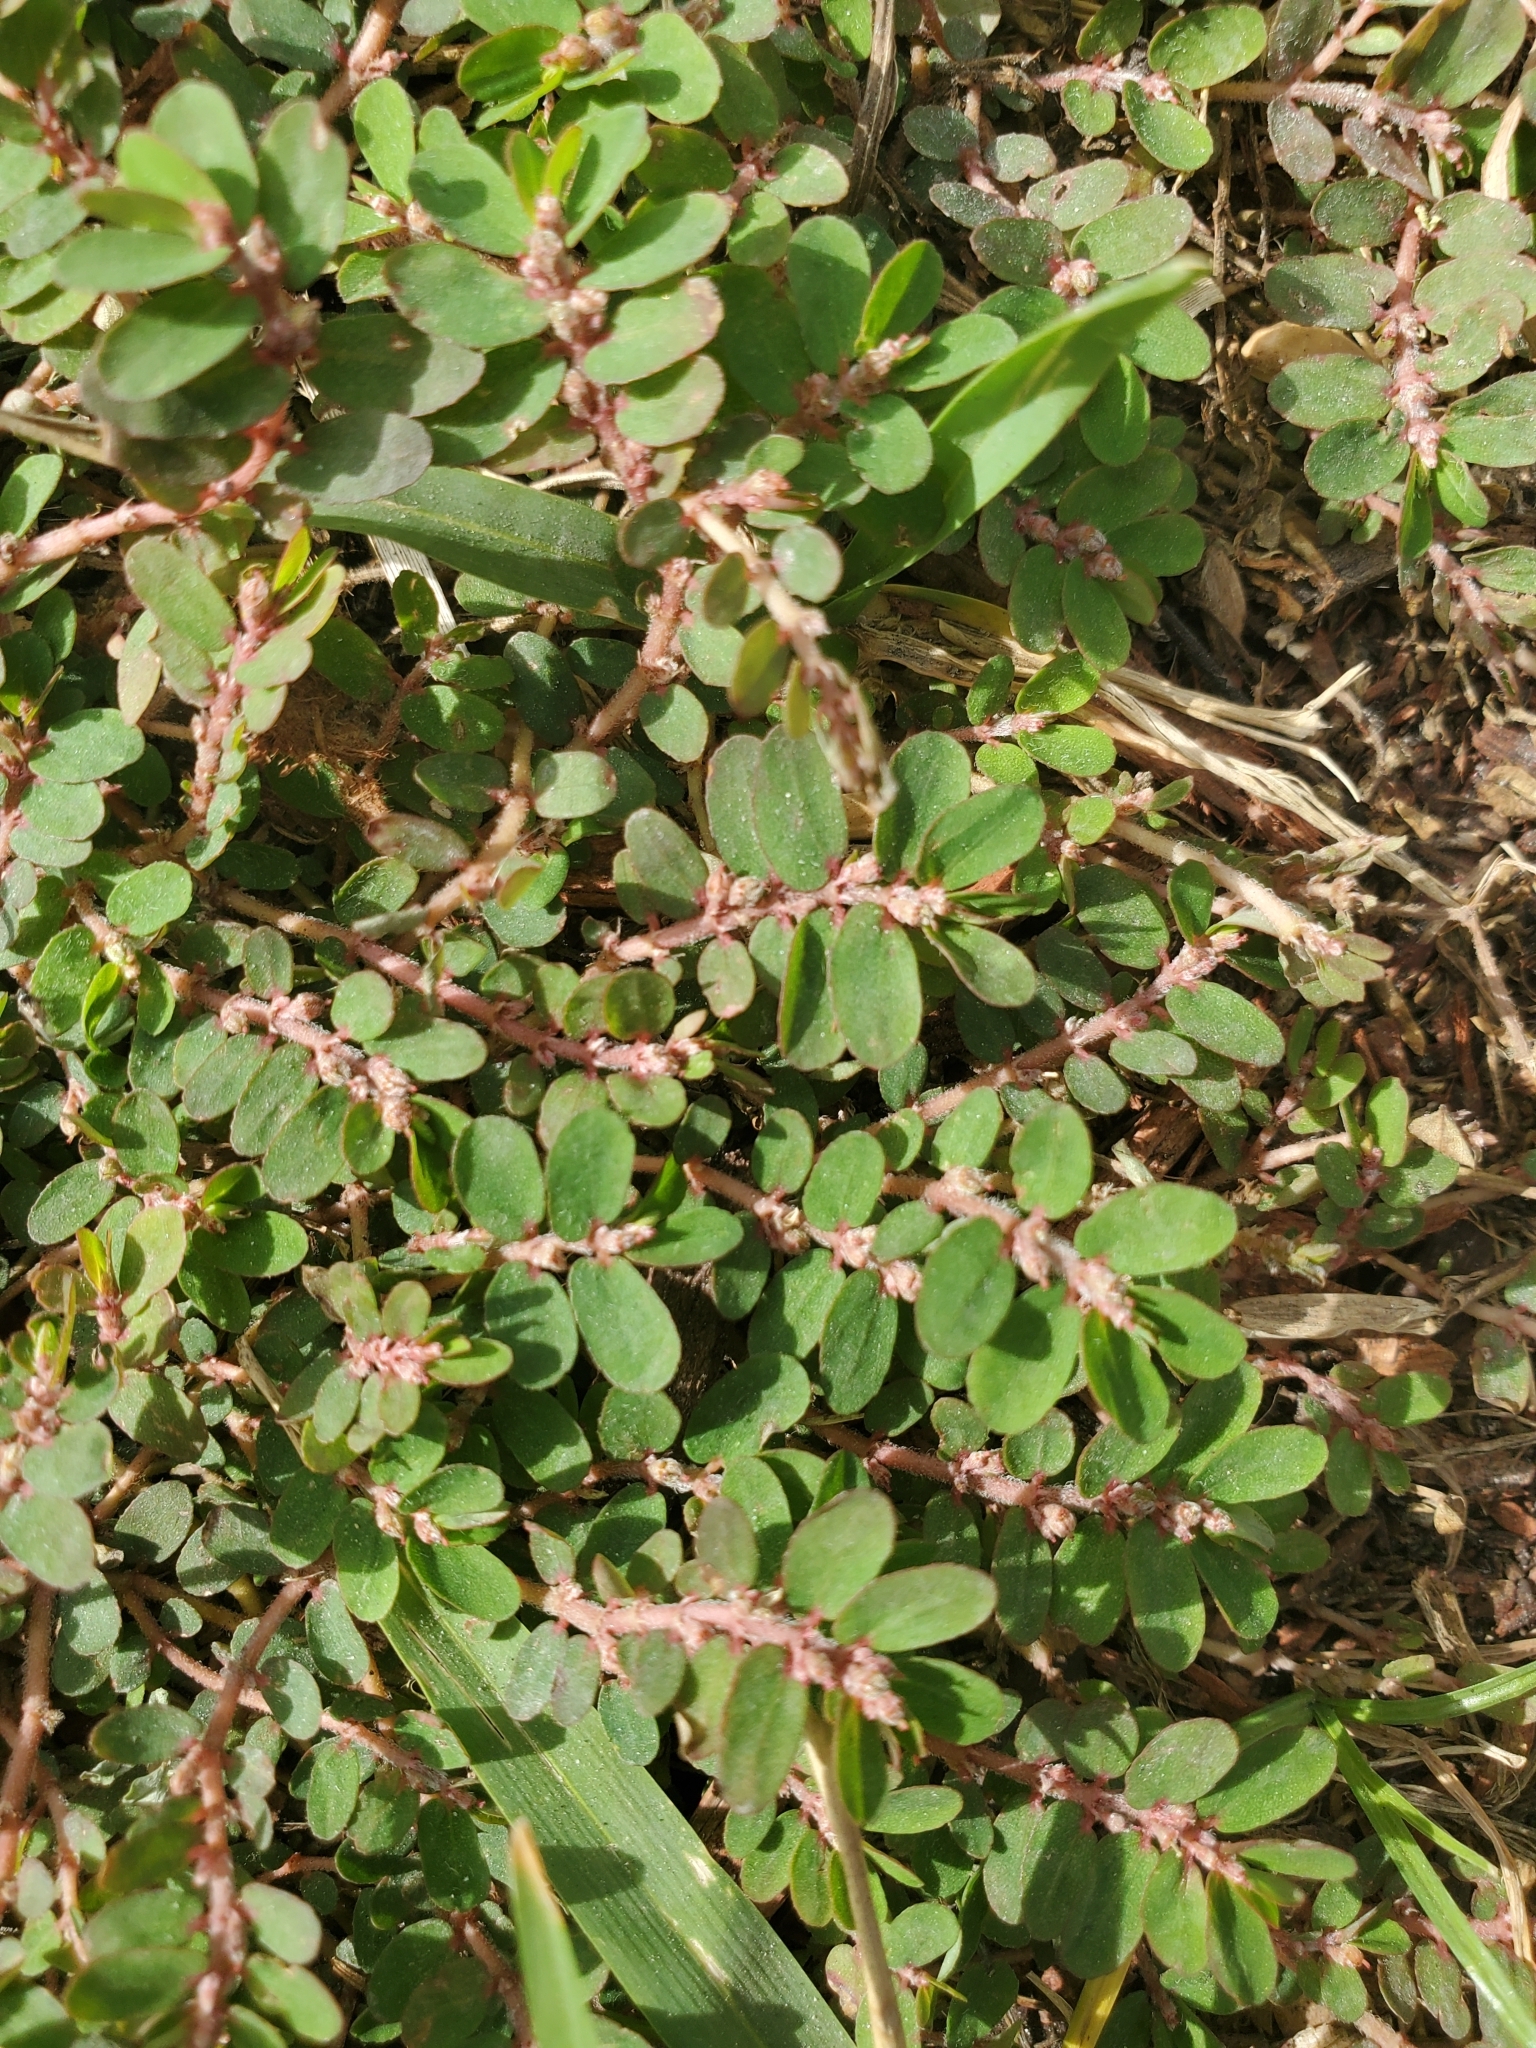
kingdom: Plantae
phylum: Tracheophyta
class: Magnoliopsida
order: Malpighiales
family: Euphorbiaceae
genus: Euphorbia
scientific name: Euphorbia thymifolia
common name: Gulf sandmat
